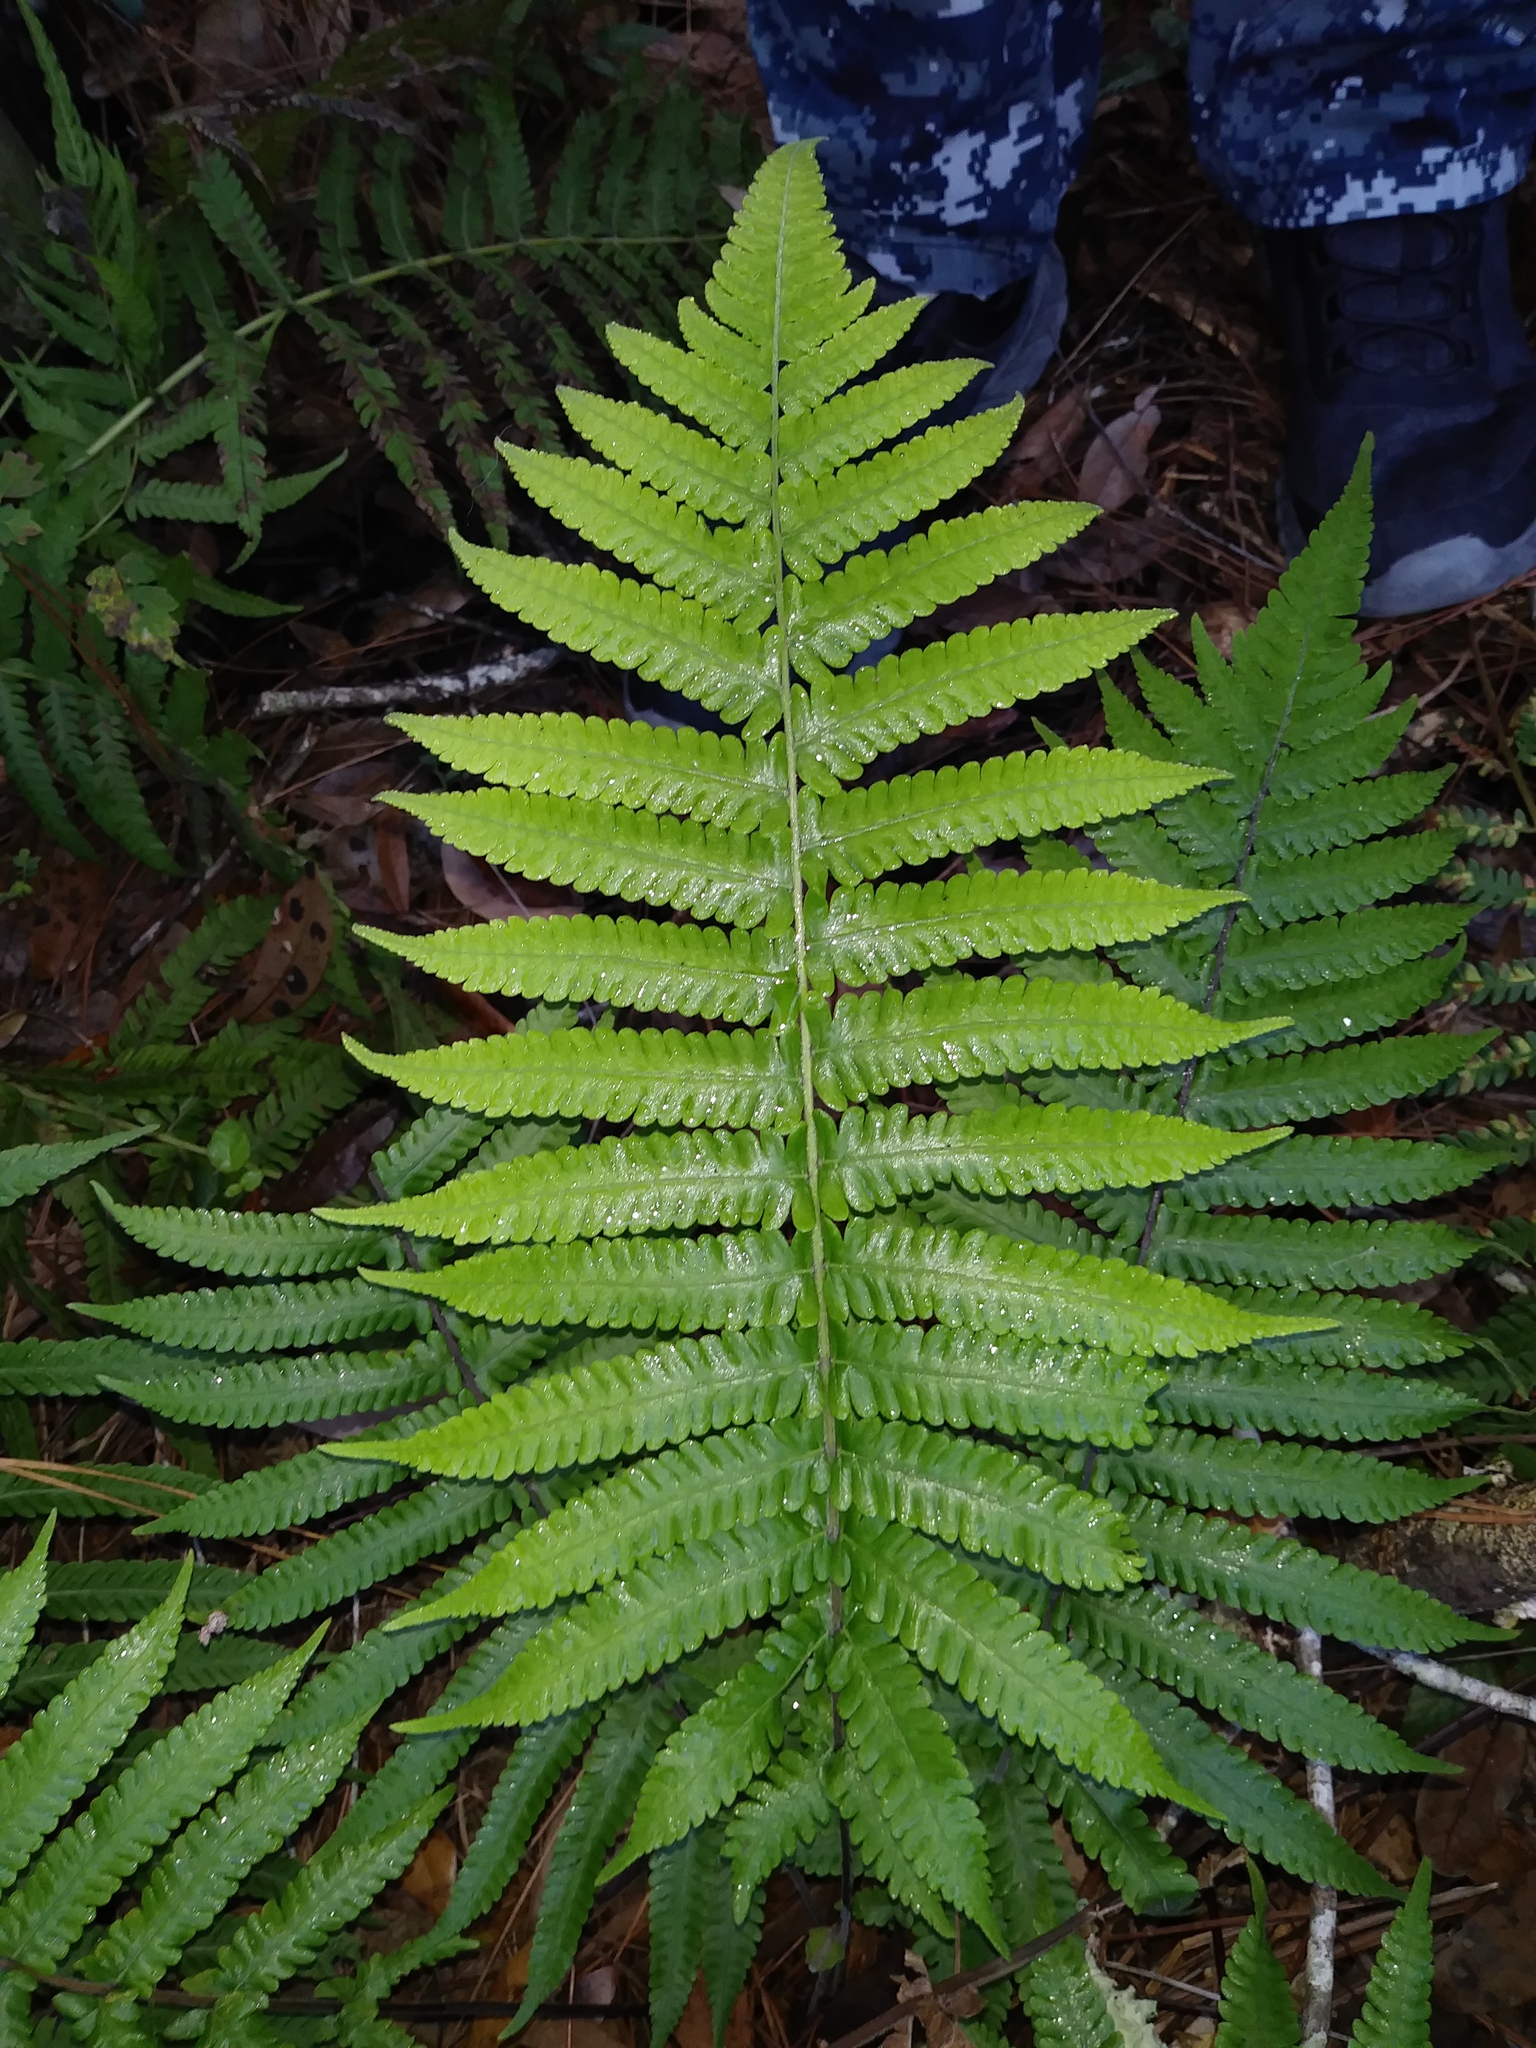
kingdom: Plantae
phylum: Tracheophyta
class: Polypodiopsida
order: Polypodiales
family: Thelypteridaceae
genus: Christella
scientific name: Christella dentata
